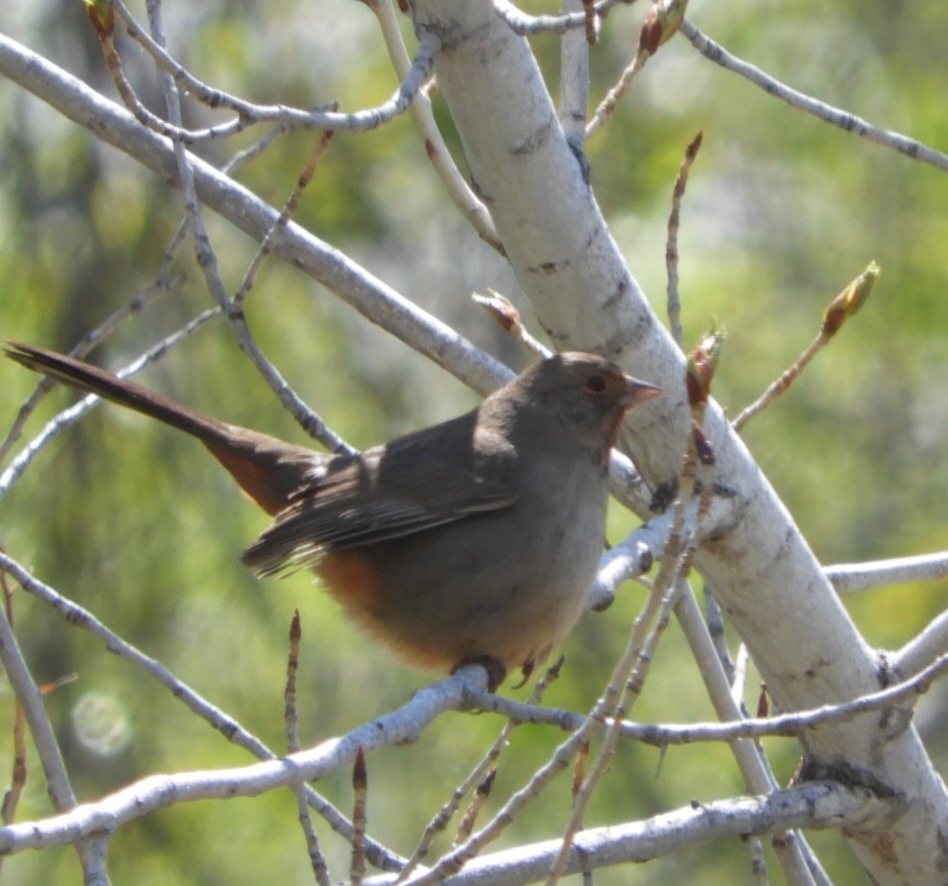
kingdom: Animalia
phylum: Chordata
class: Aves
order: Passeriformes
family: Passerellidae
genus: Melozone
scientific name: Melozone crissalis
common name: California towhee
